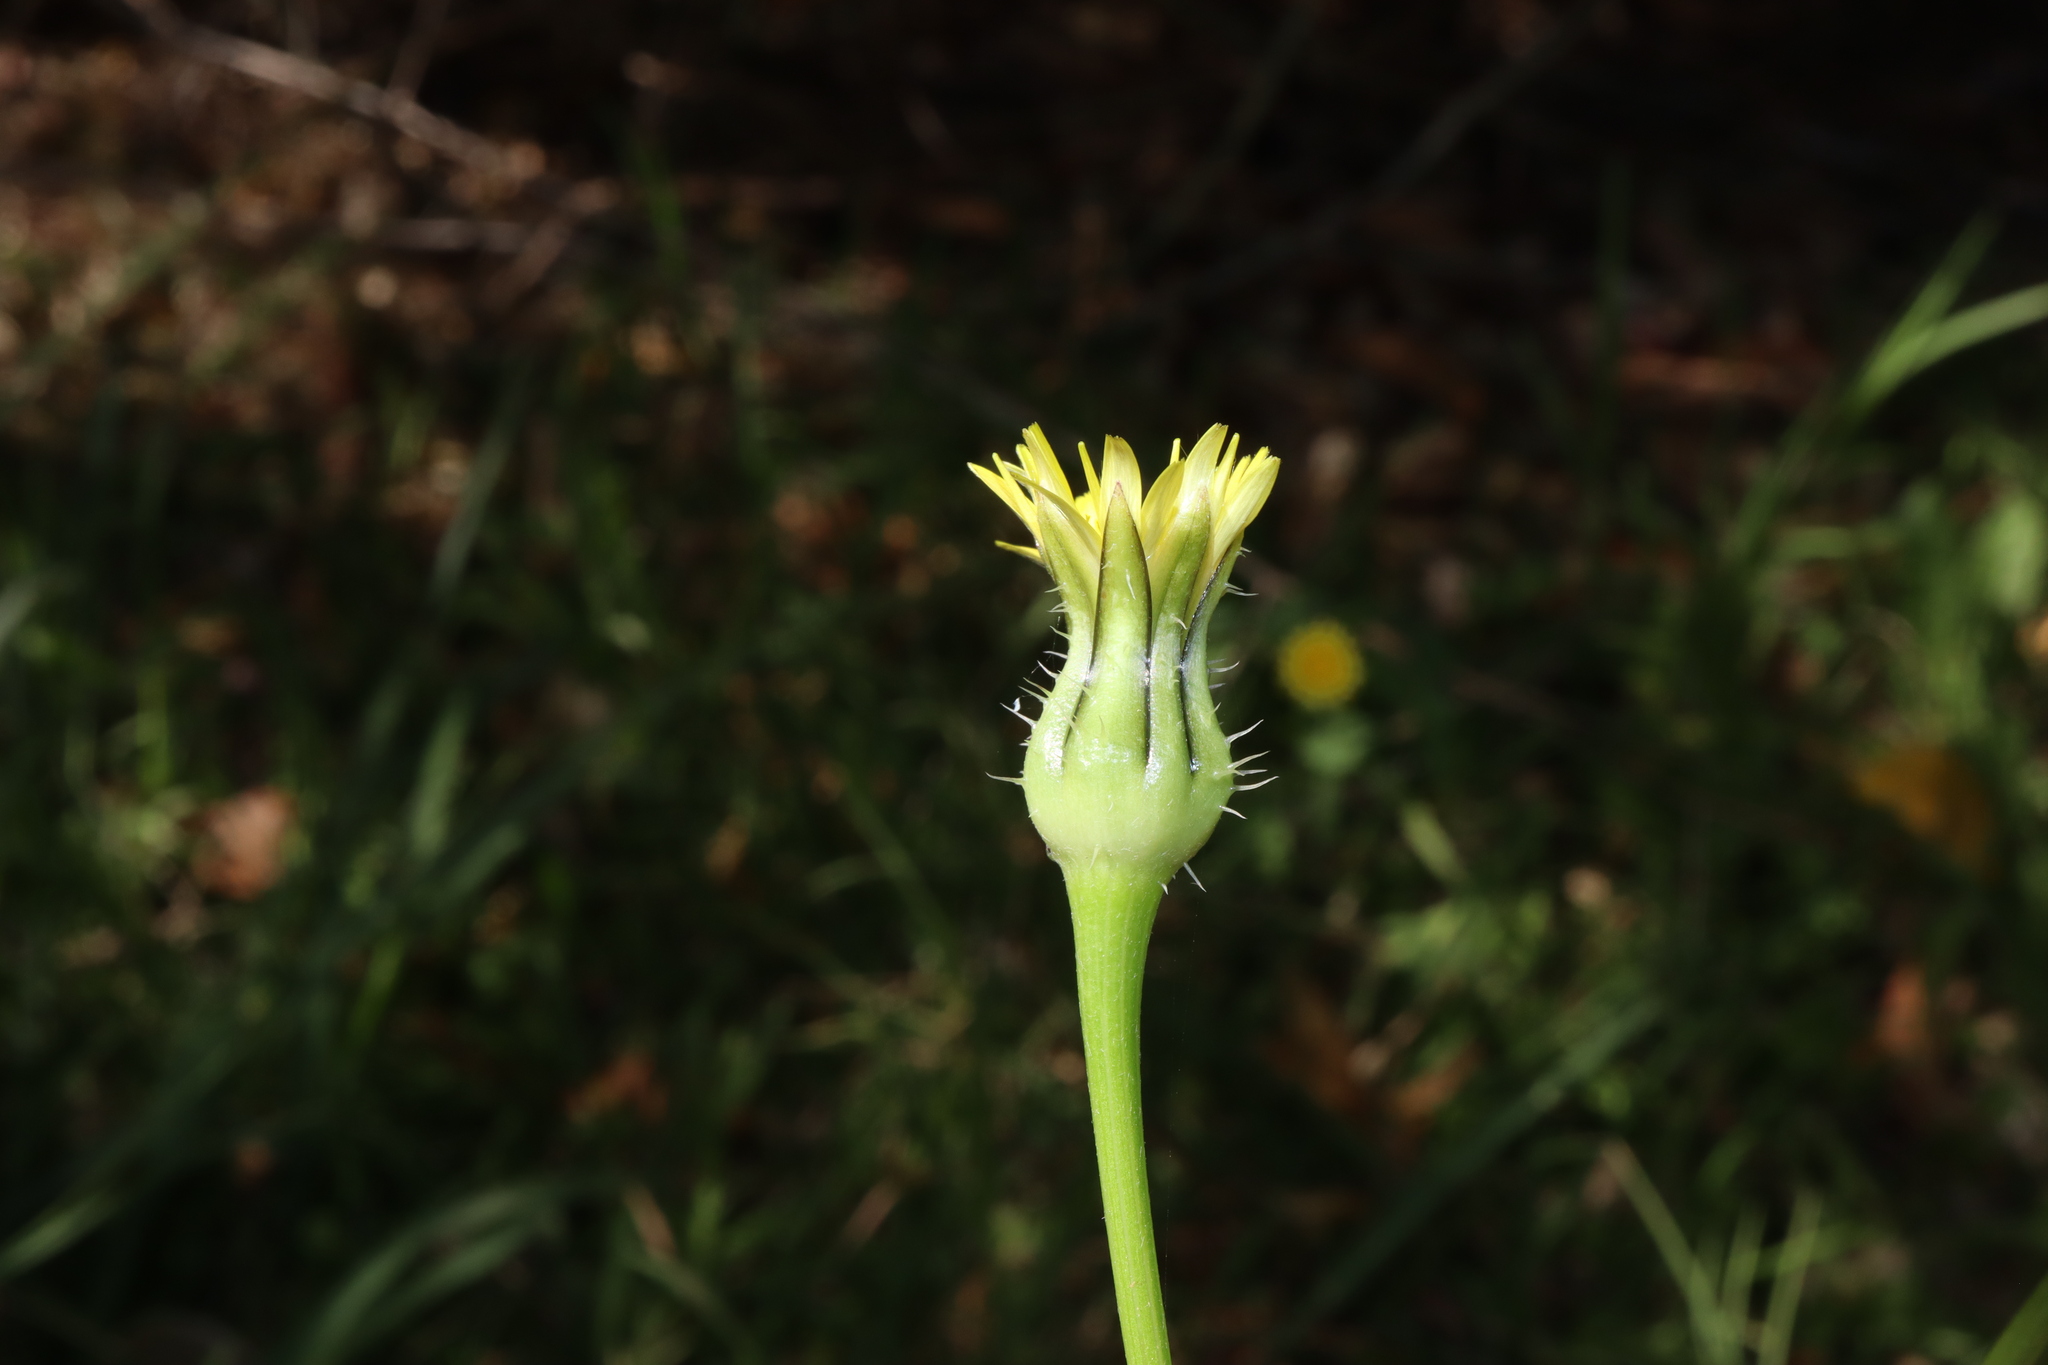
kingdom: Plantae
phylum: Tracheophyta
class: Magnoliopsida
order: Asterales
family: Asteraceae
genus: Urospermum
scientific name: Urospermum picroides
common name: False hawkbit
